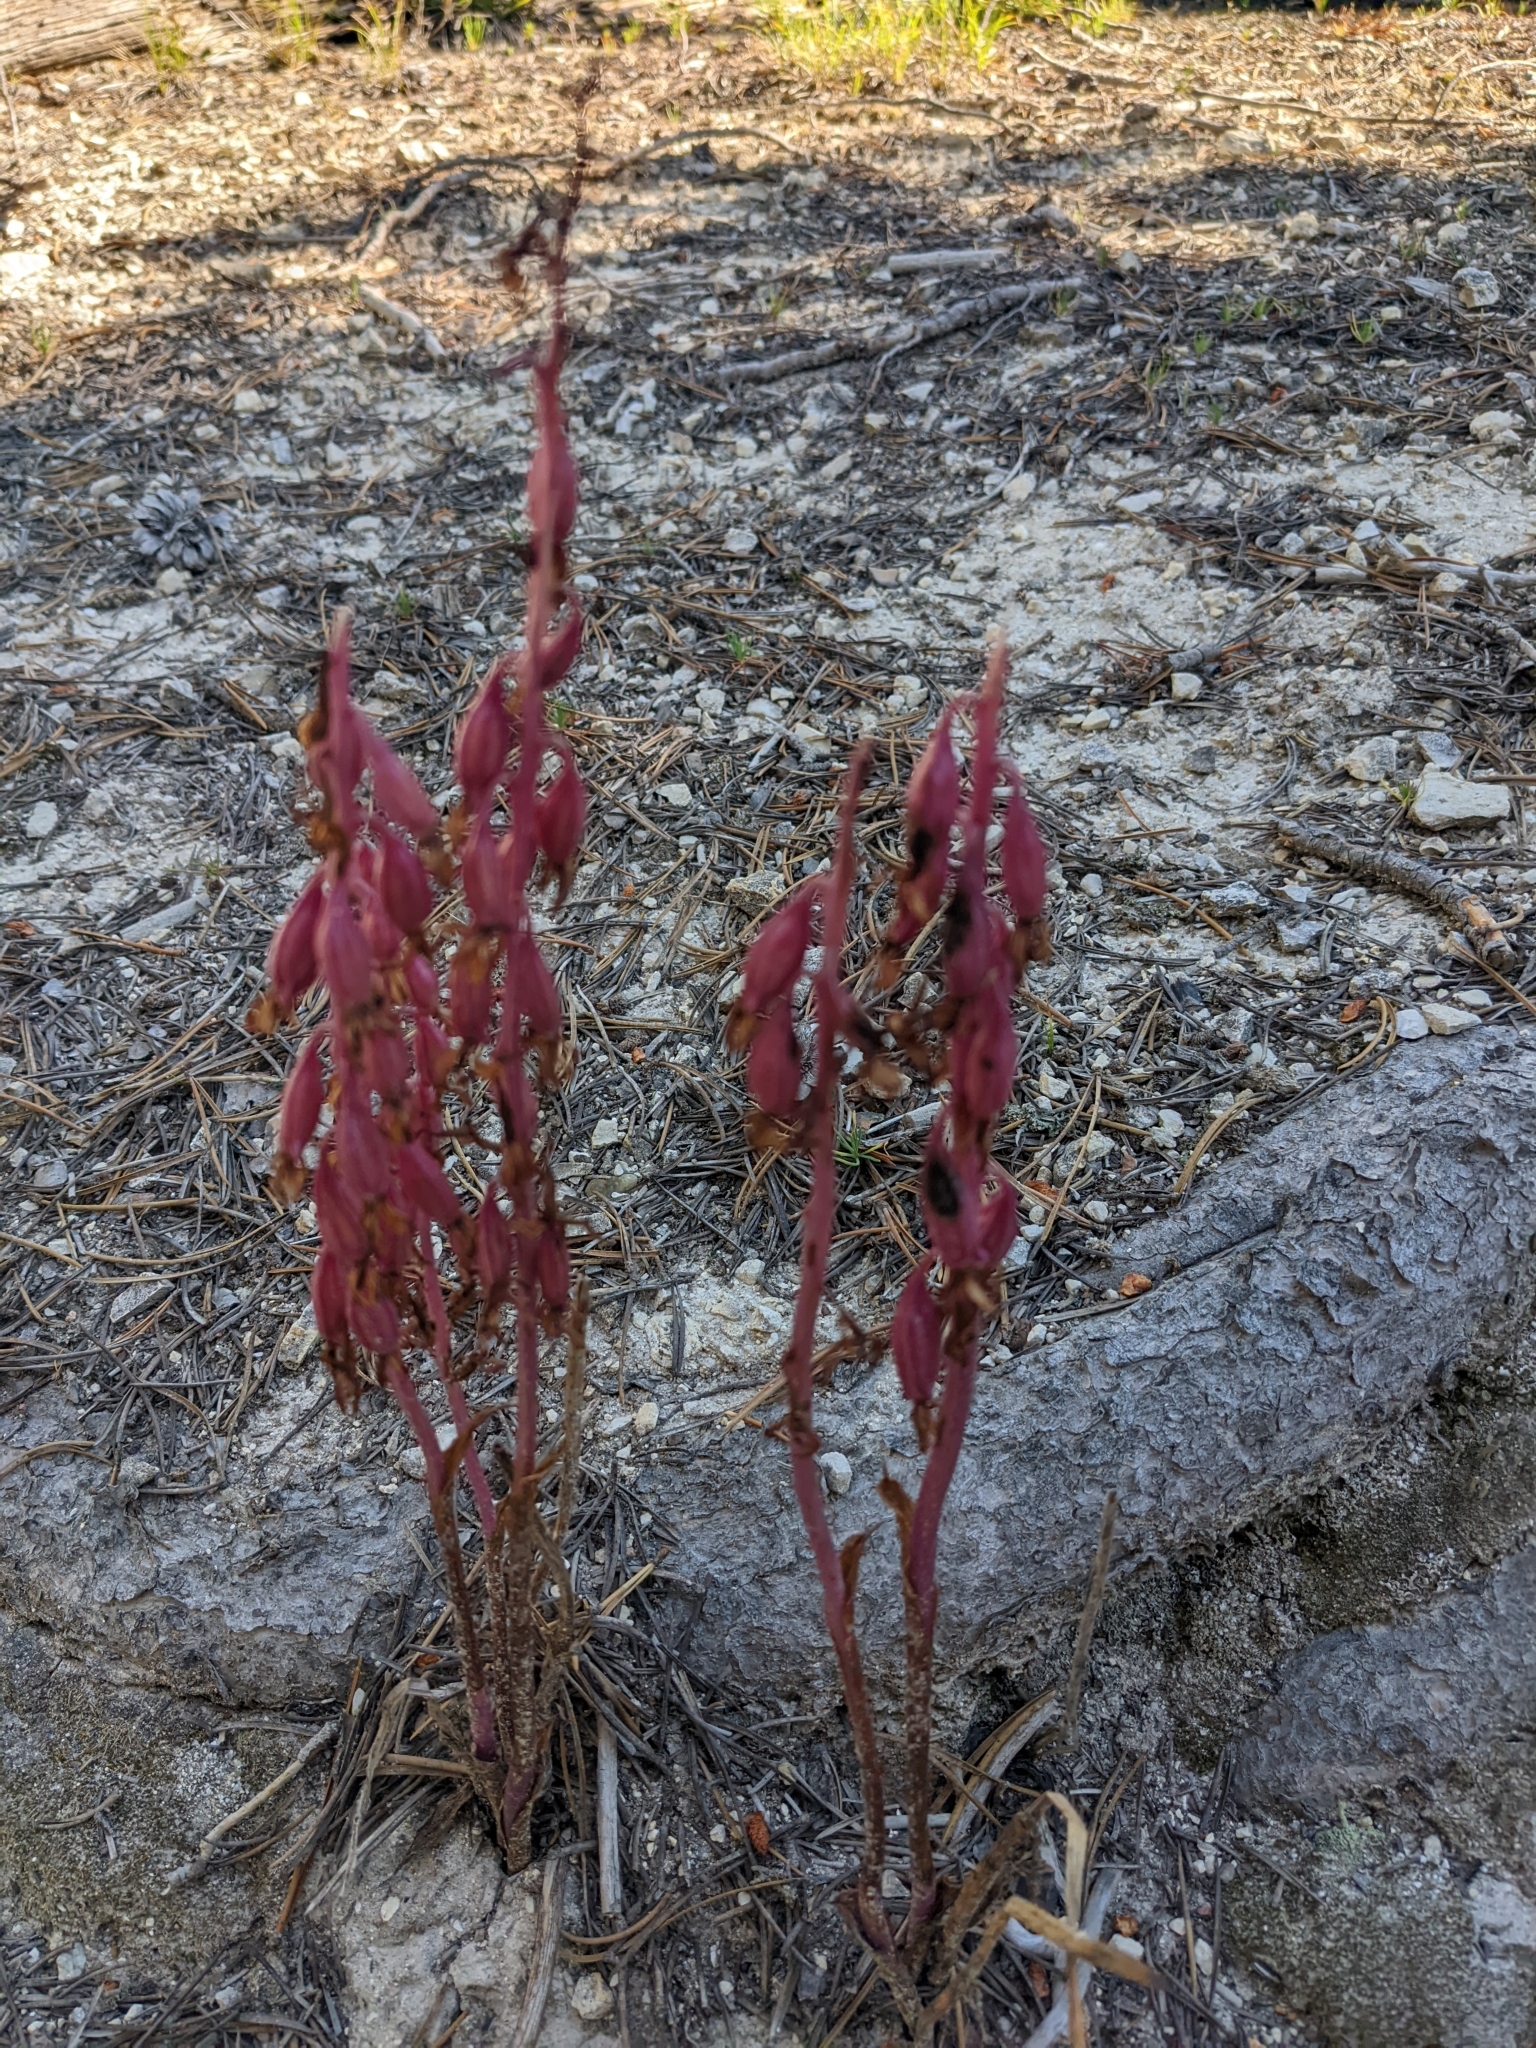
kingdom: Plantae
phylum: Tracheophyta
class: Liliopsida
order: Asparagales
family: Orchidaceae
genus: Corallorhiza
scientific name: Corallorhiza mertensiana
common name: Pacific coralroot
